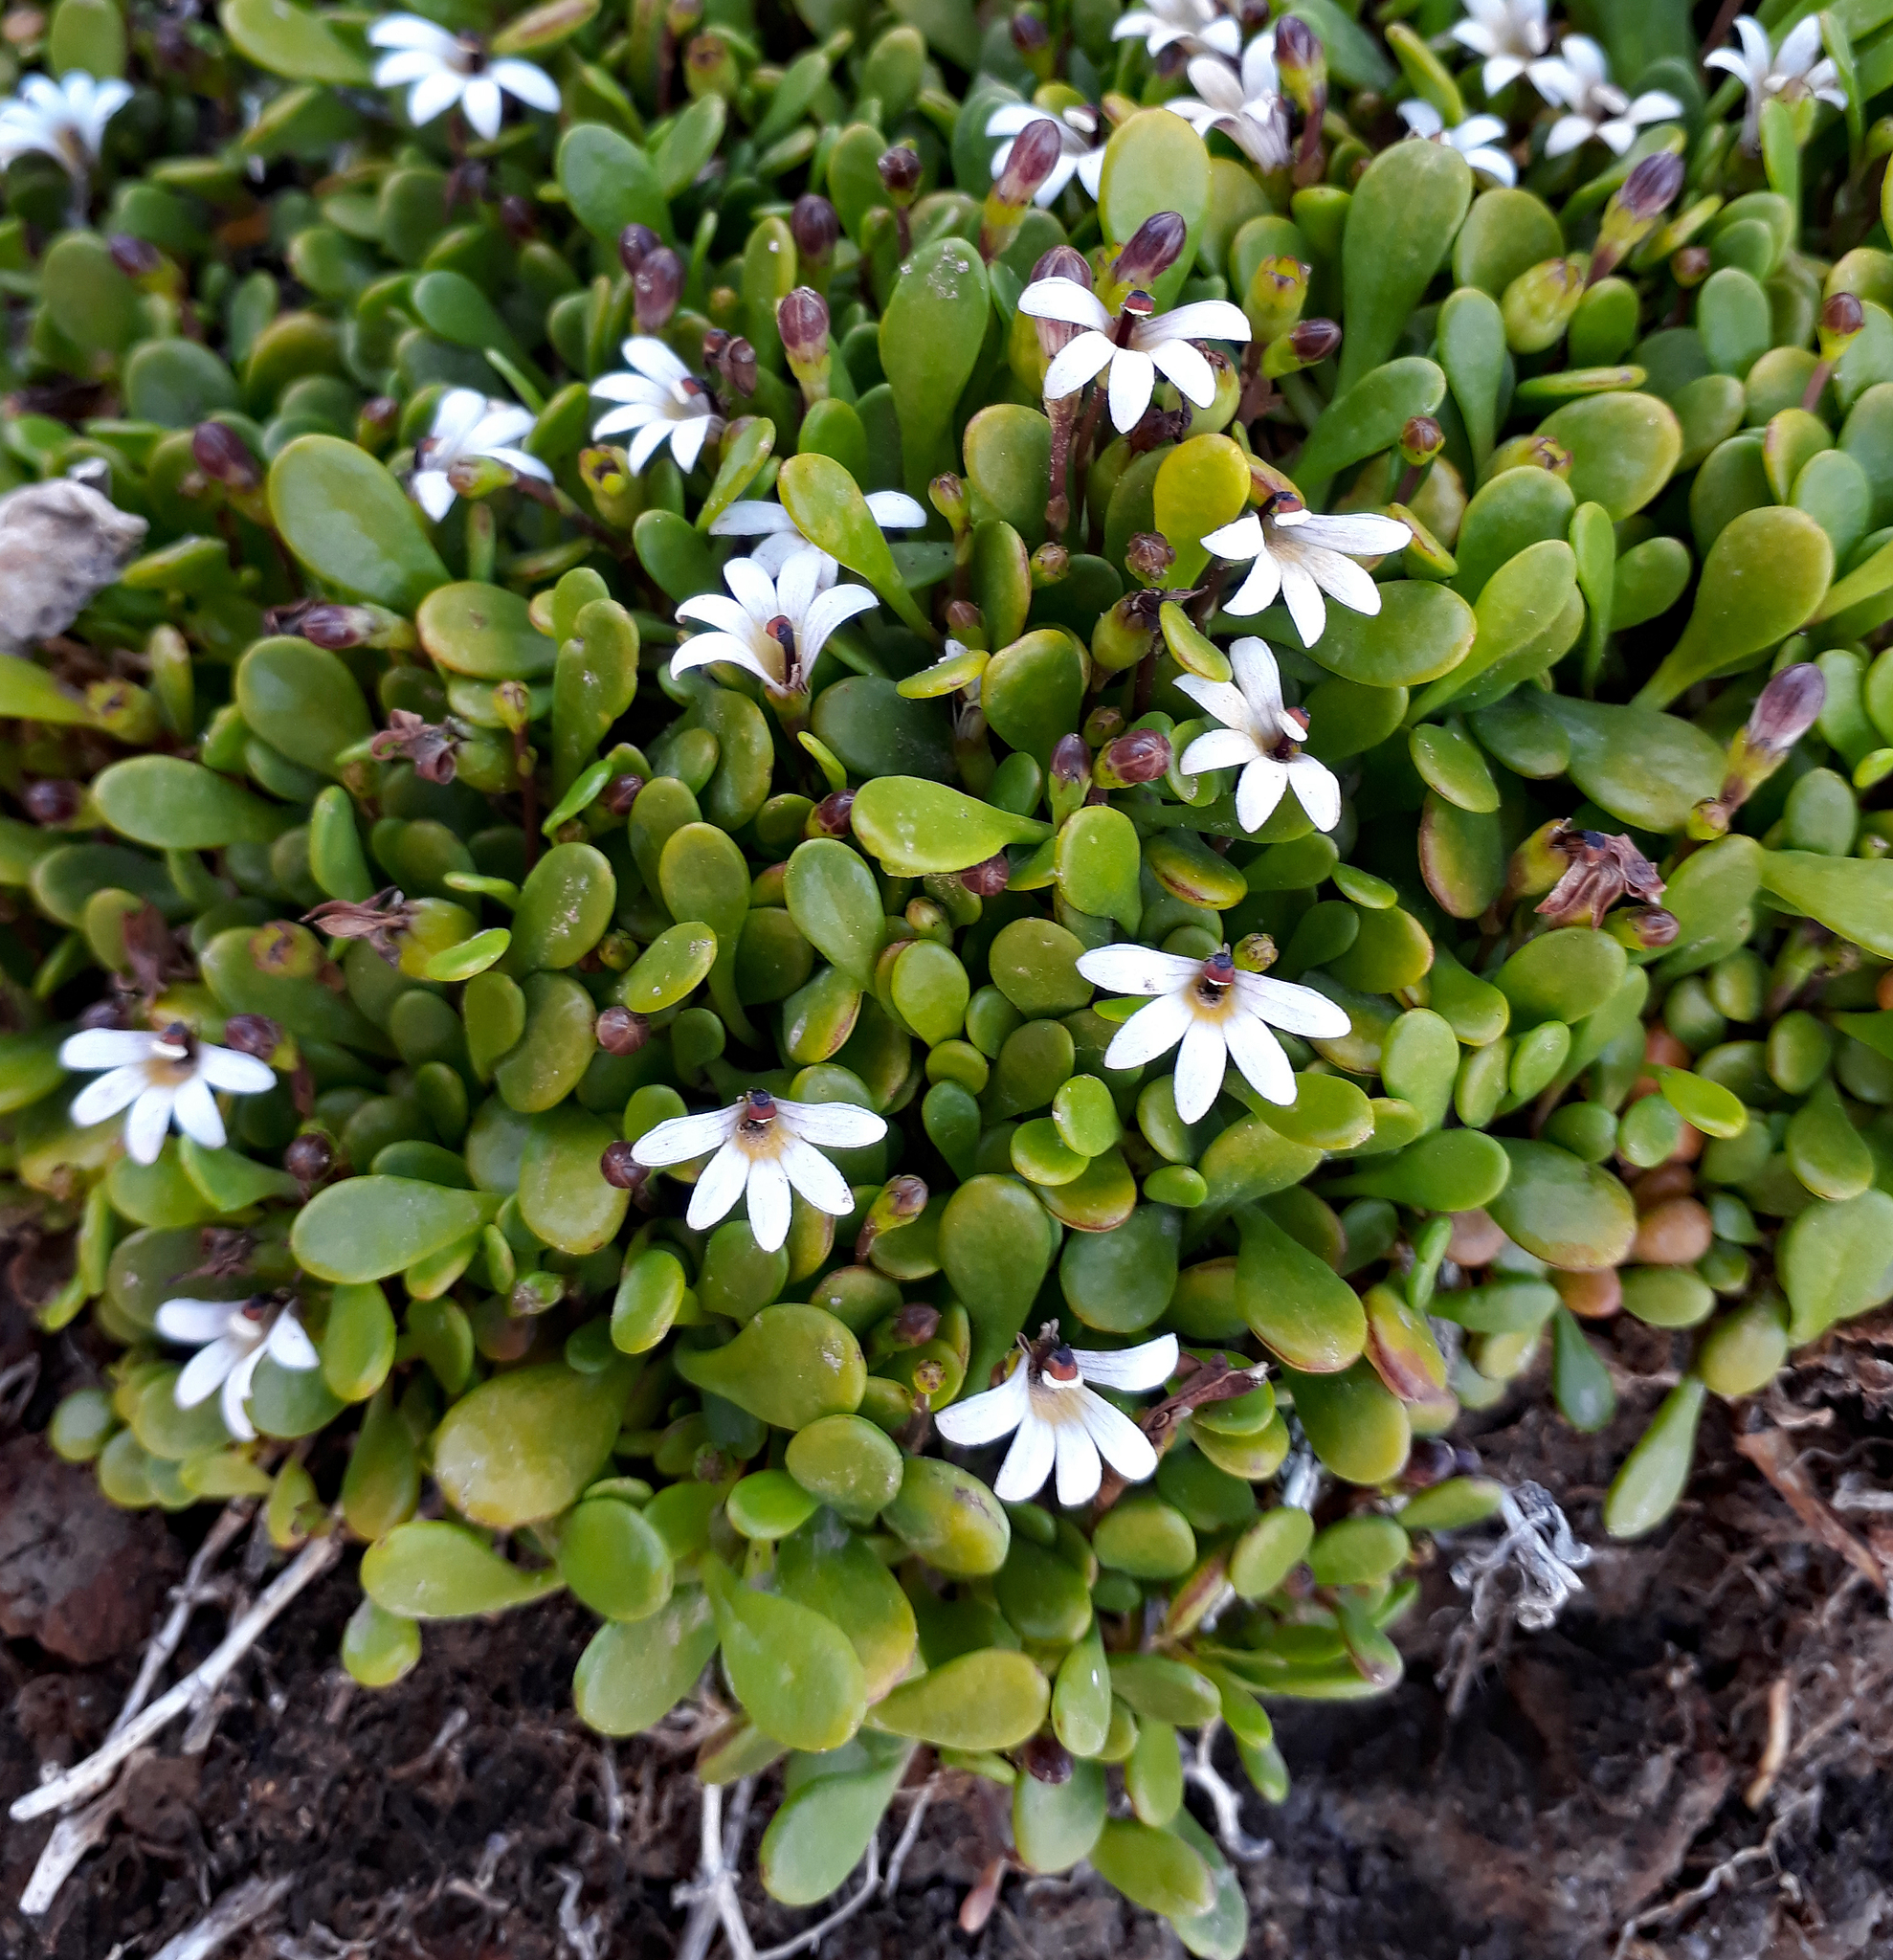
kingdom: Plantae
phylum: Tracheophyta
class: Magnoliopsida
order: Asterales
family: Goodeniaceae
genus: Goodenia
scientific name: Goodenia radicans
